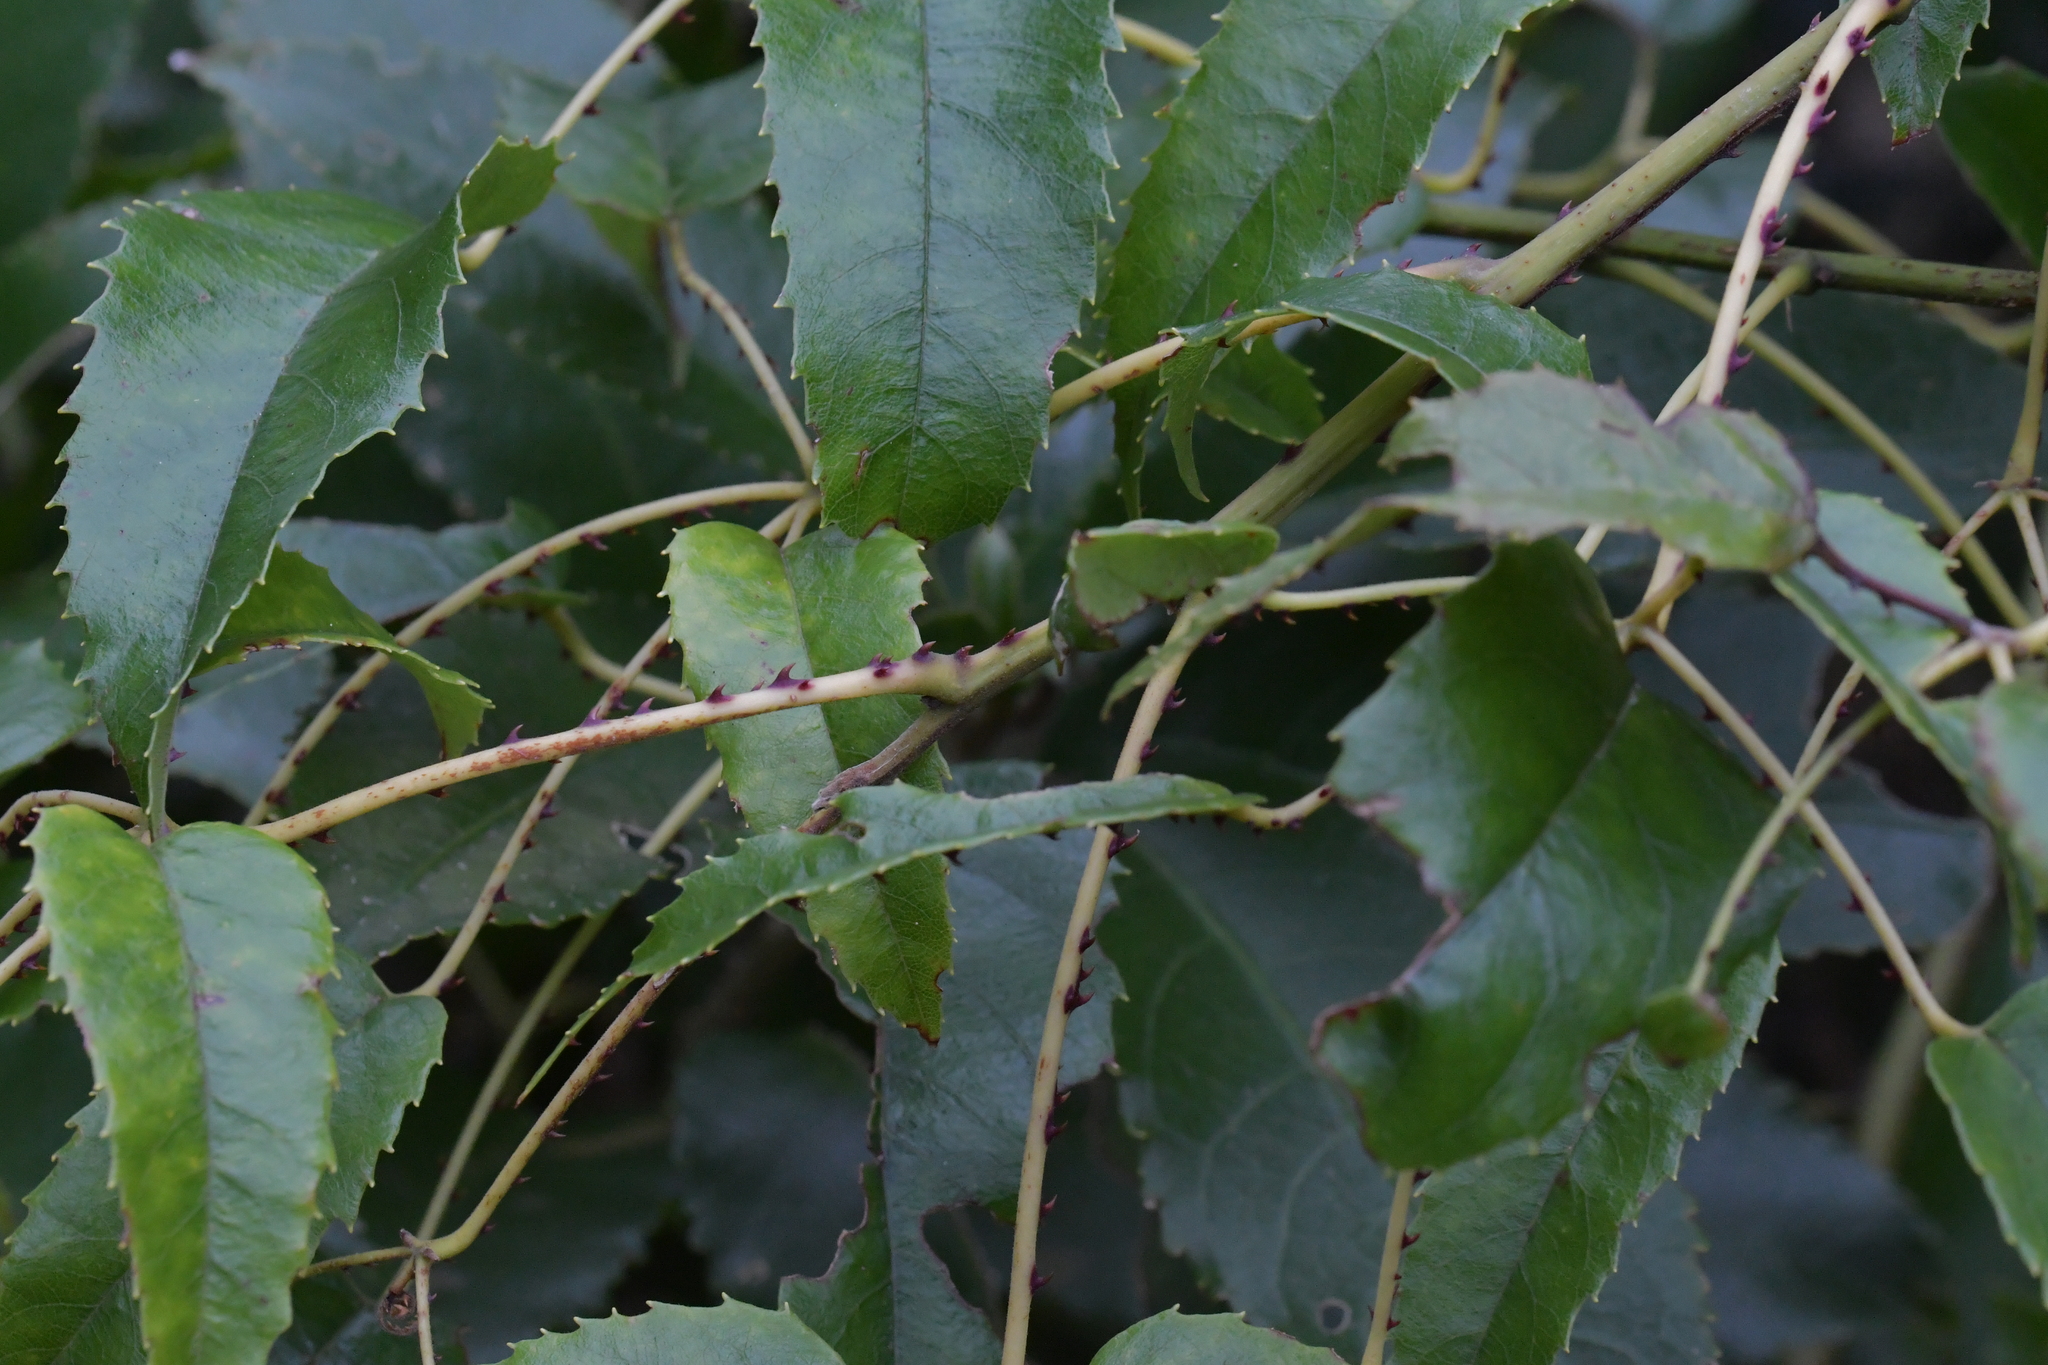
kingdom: Plantae
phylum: Tracheophyta
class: Magnoliopsida
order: Rosales
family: Rosaceae
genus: Rubus
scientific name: Rubus cissoides
